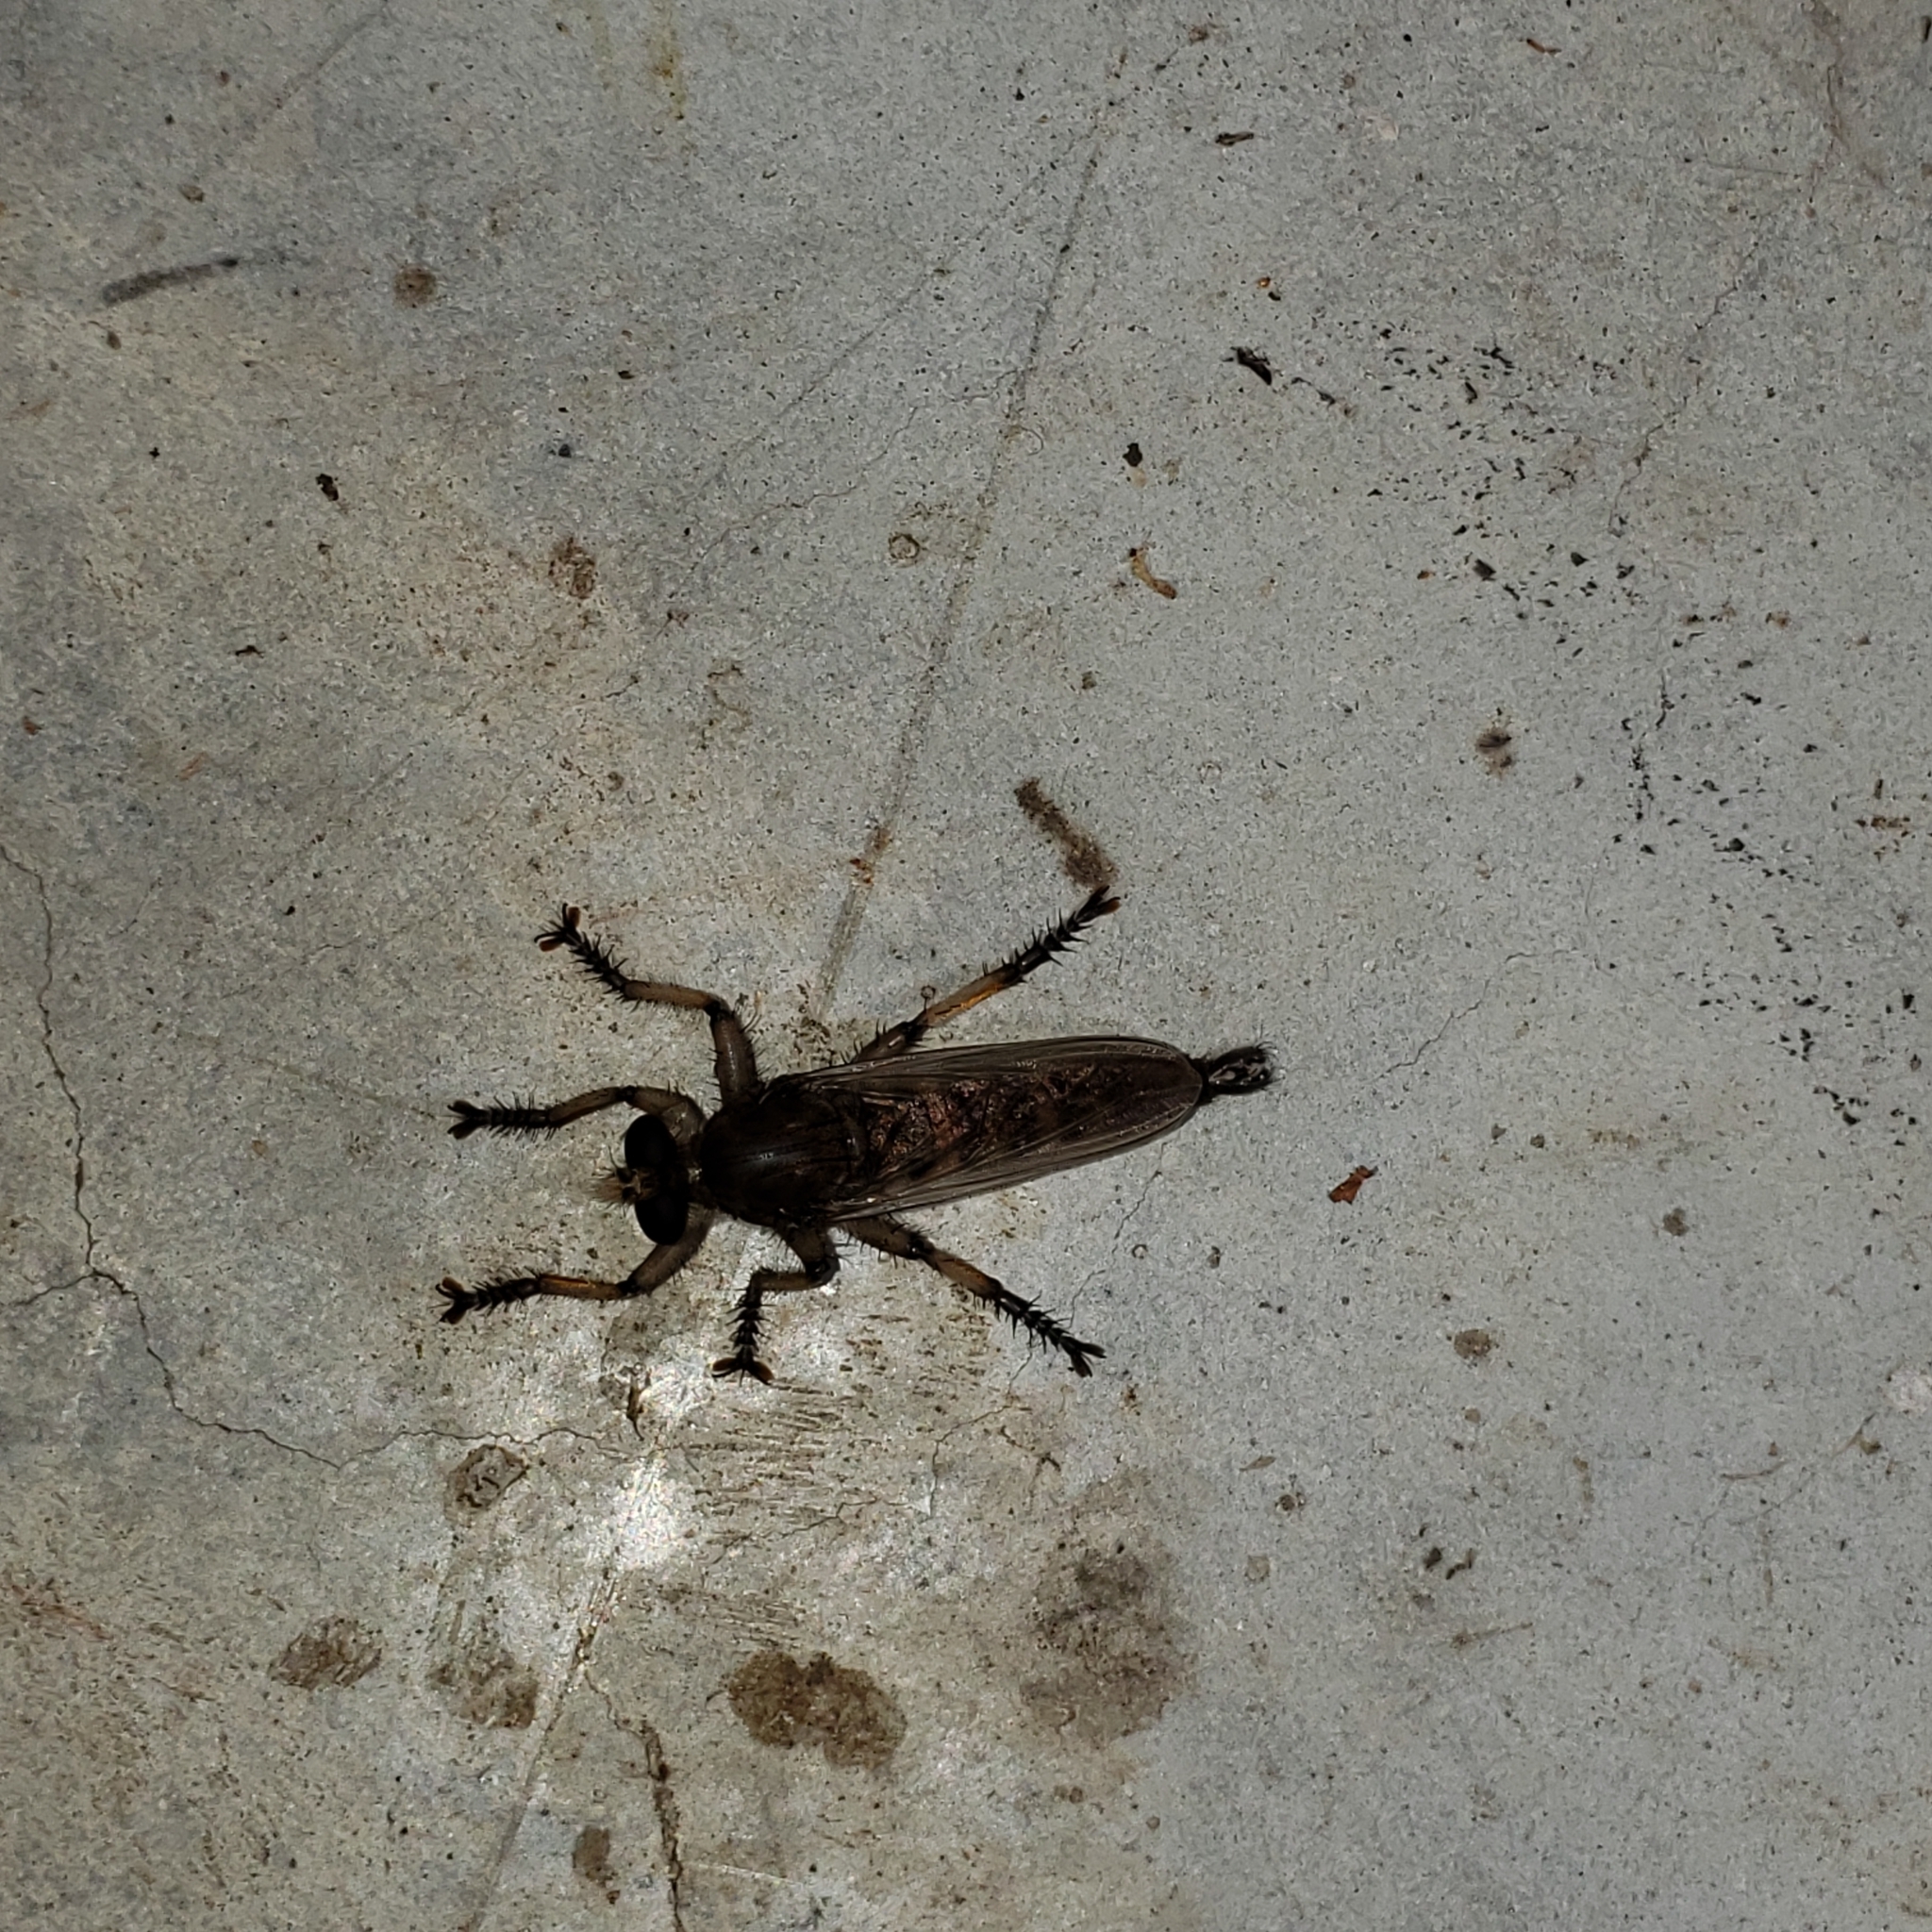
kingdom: Animalia
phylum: Arthropoda
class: Insecta
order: Diptera
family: Asilidae
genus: Promachus
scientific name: Promachus hinei
